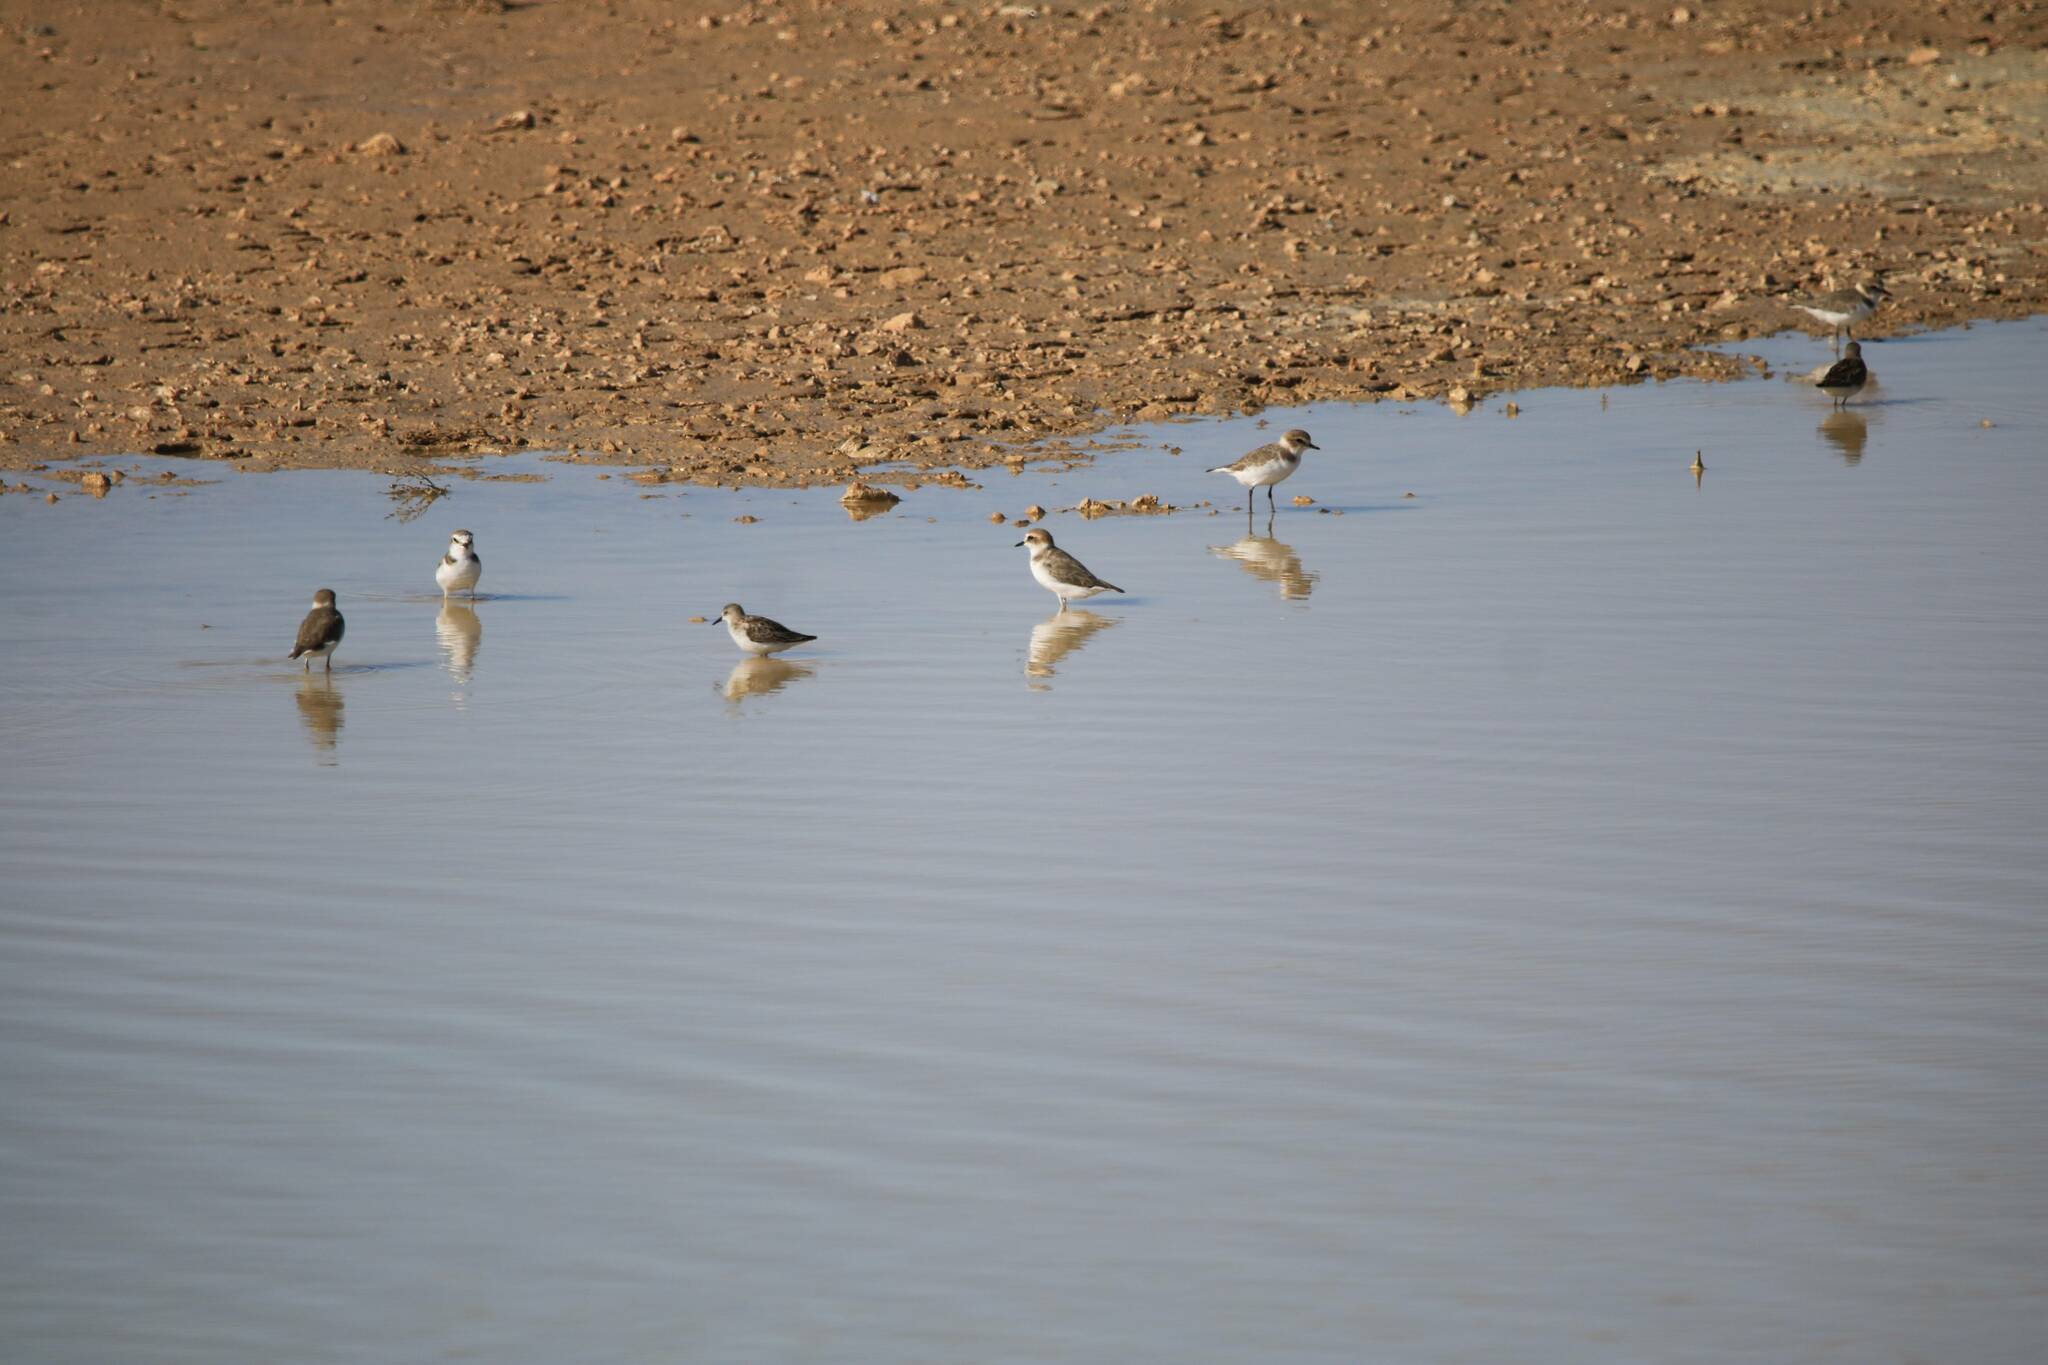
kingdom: Animalia
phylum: Chordata
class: Aves
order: Charadriiformes
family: Charadriidae
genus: Charadrius
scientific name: Charadrius alexandrinus
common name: Kentish plover
